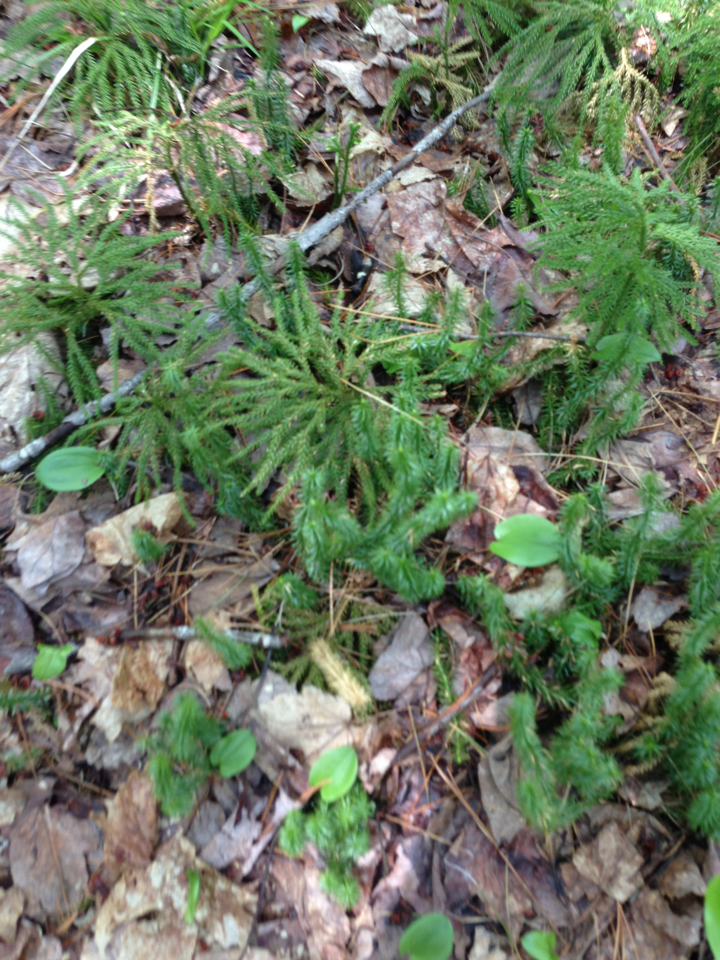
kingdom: Plantae
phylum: Tracheophyta
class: Lycopodiopsida
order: Lycopodiales
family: Lycopodiaceae
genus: Spinulum
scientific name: Spinulum annotinum
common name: Interrupted club-moss
